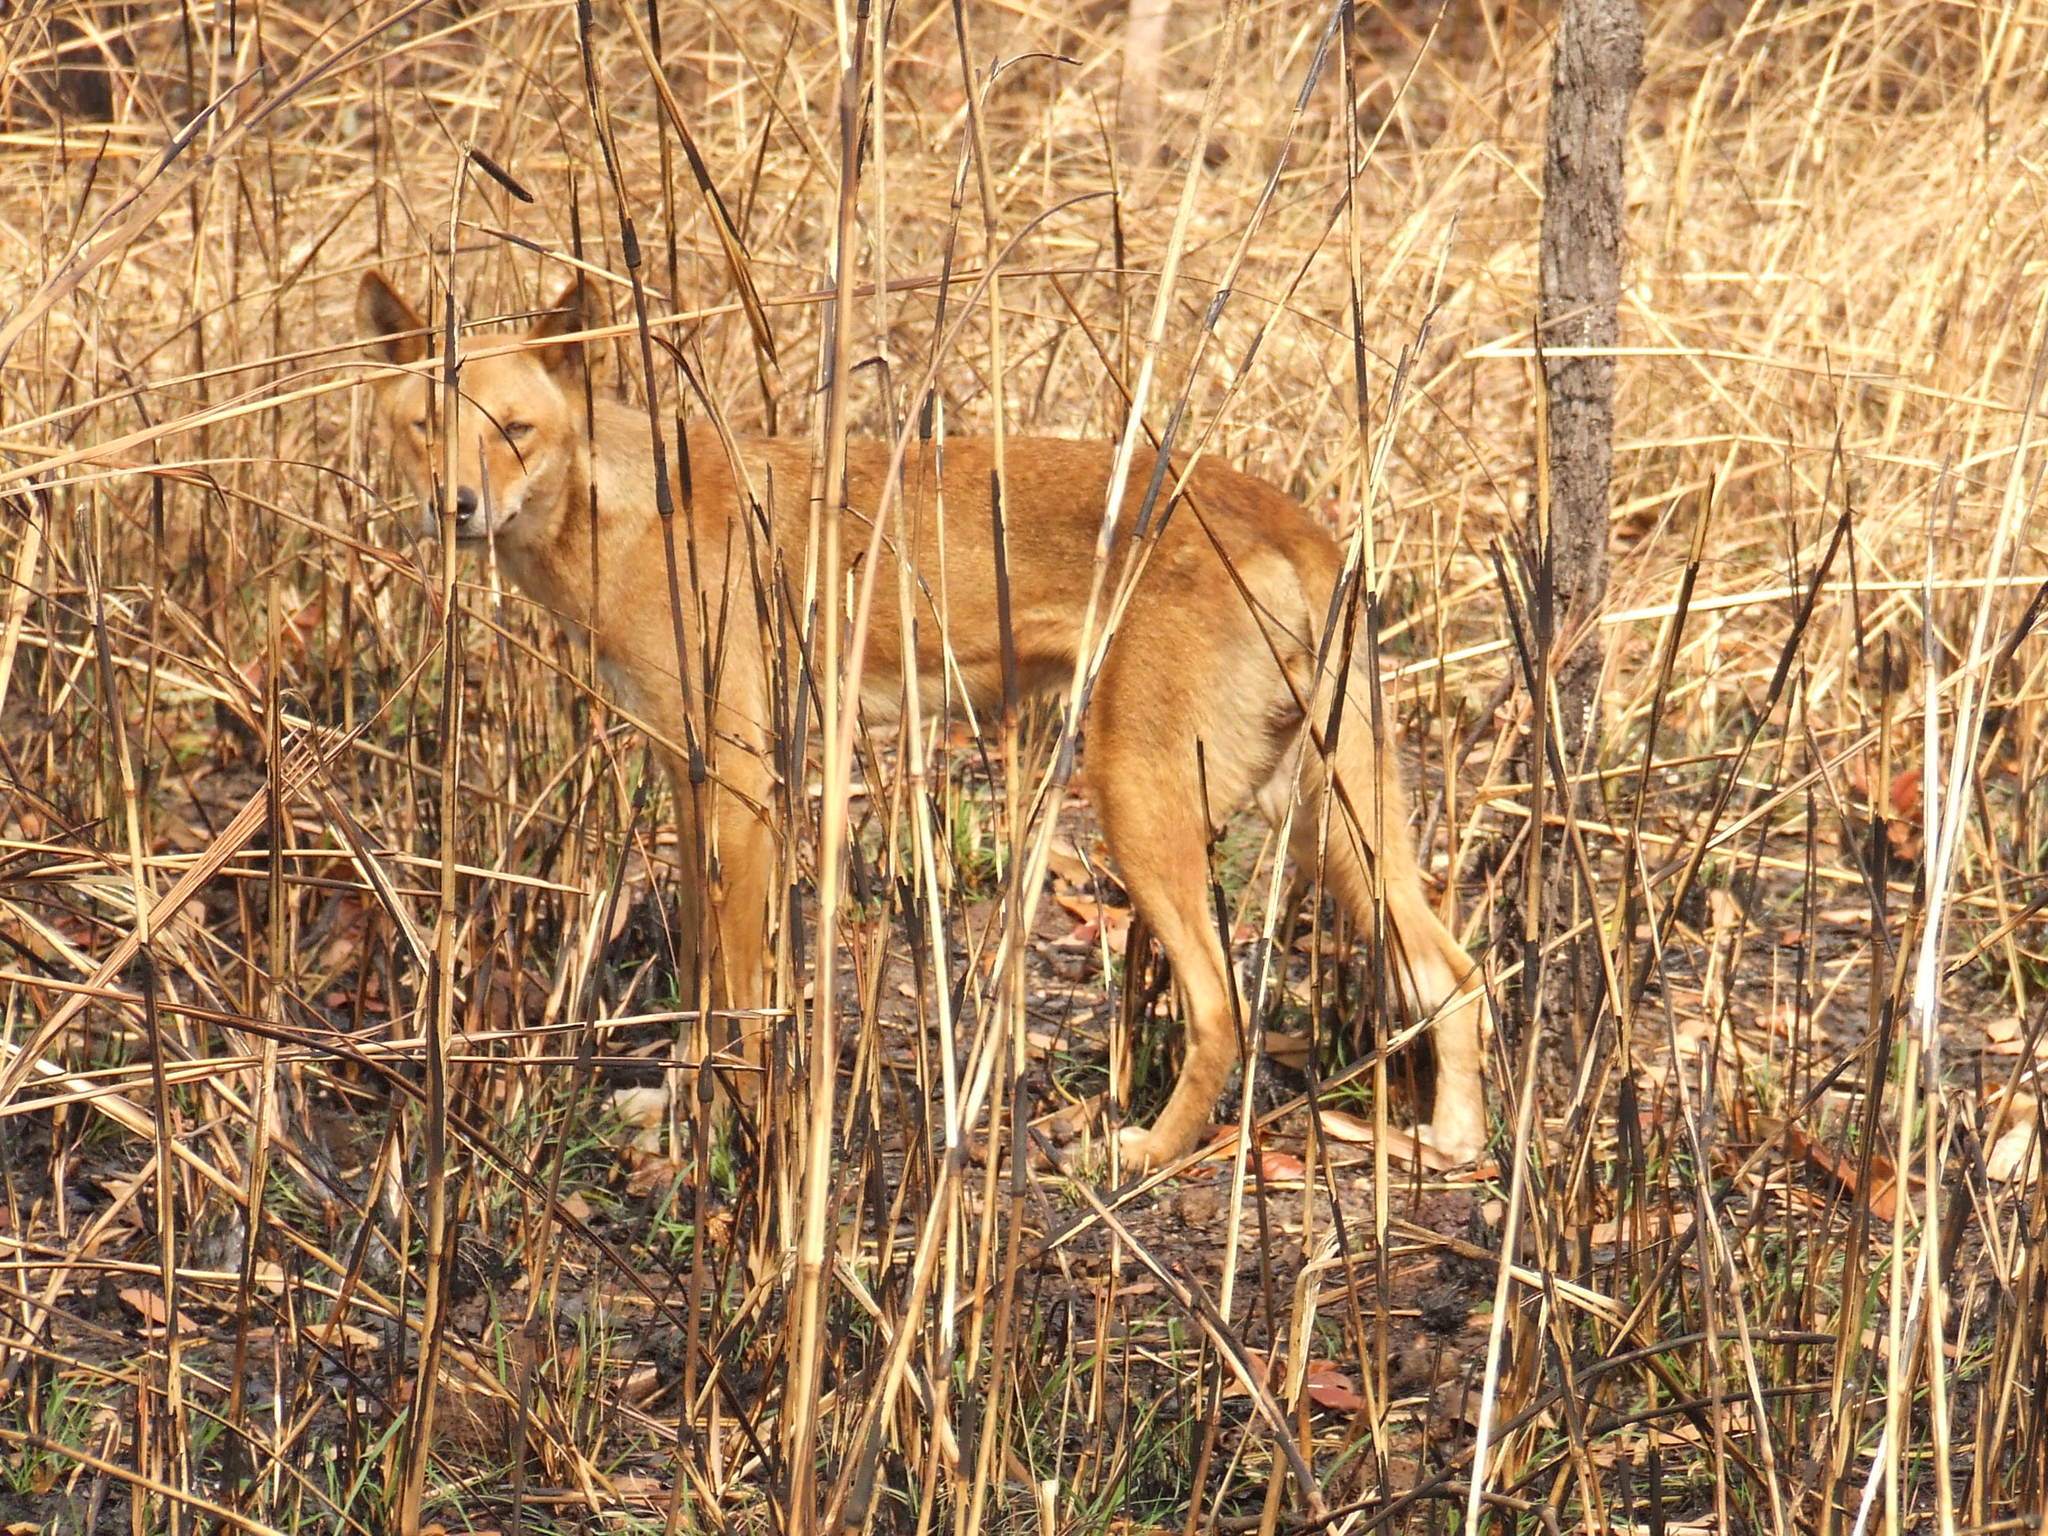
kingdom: Animalia
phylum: Chordata
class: Mammalia
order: Carnivora
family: Canidae
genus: Canis
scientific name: Canis lupus
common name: Gray wolf
